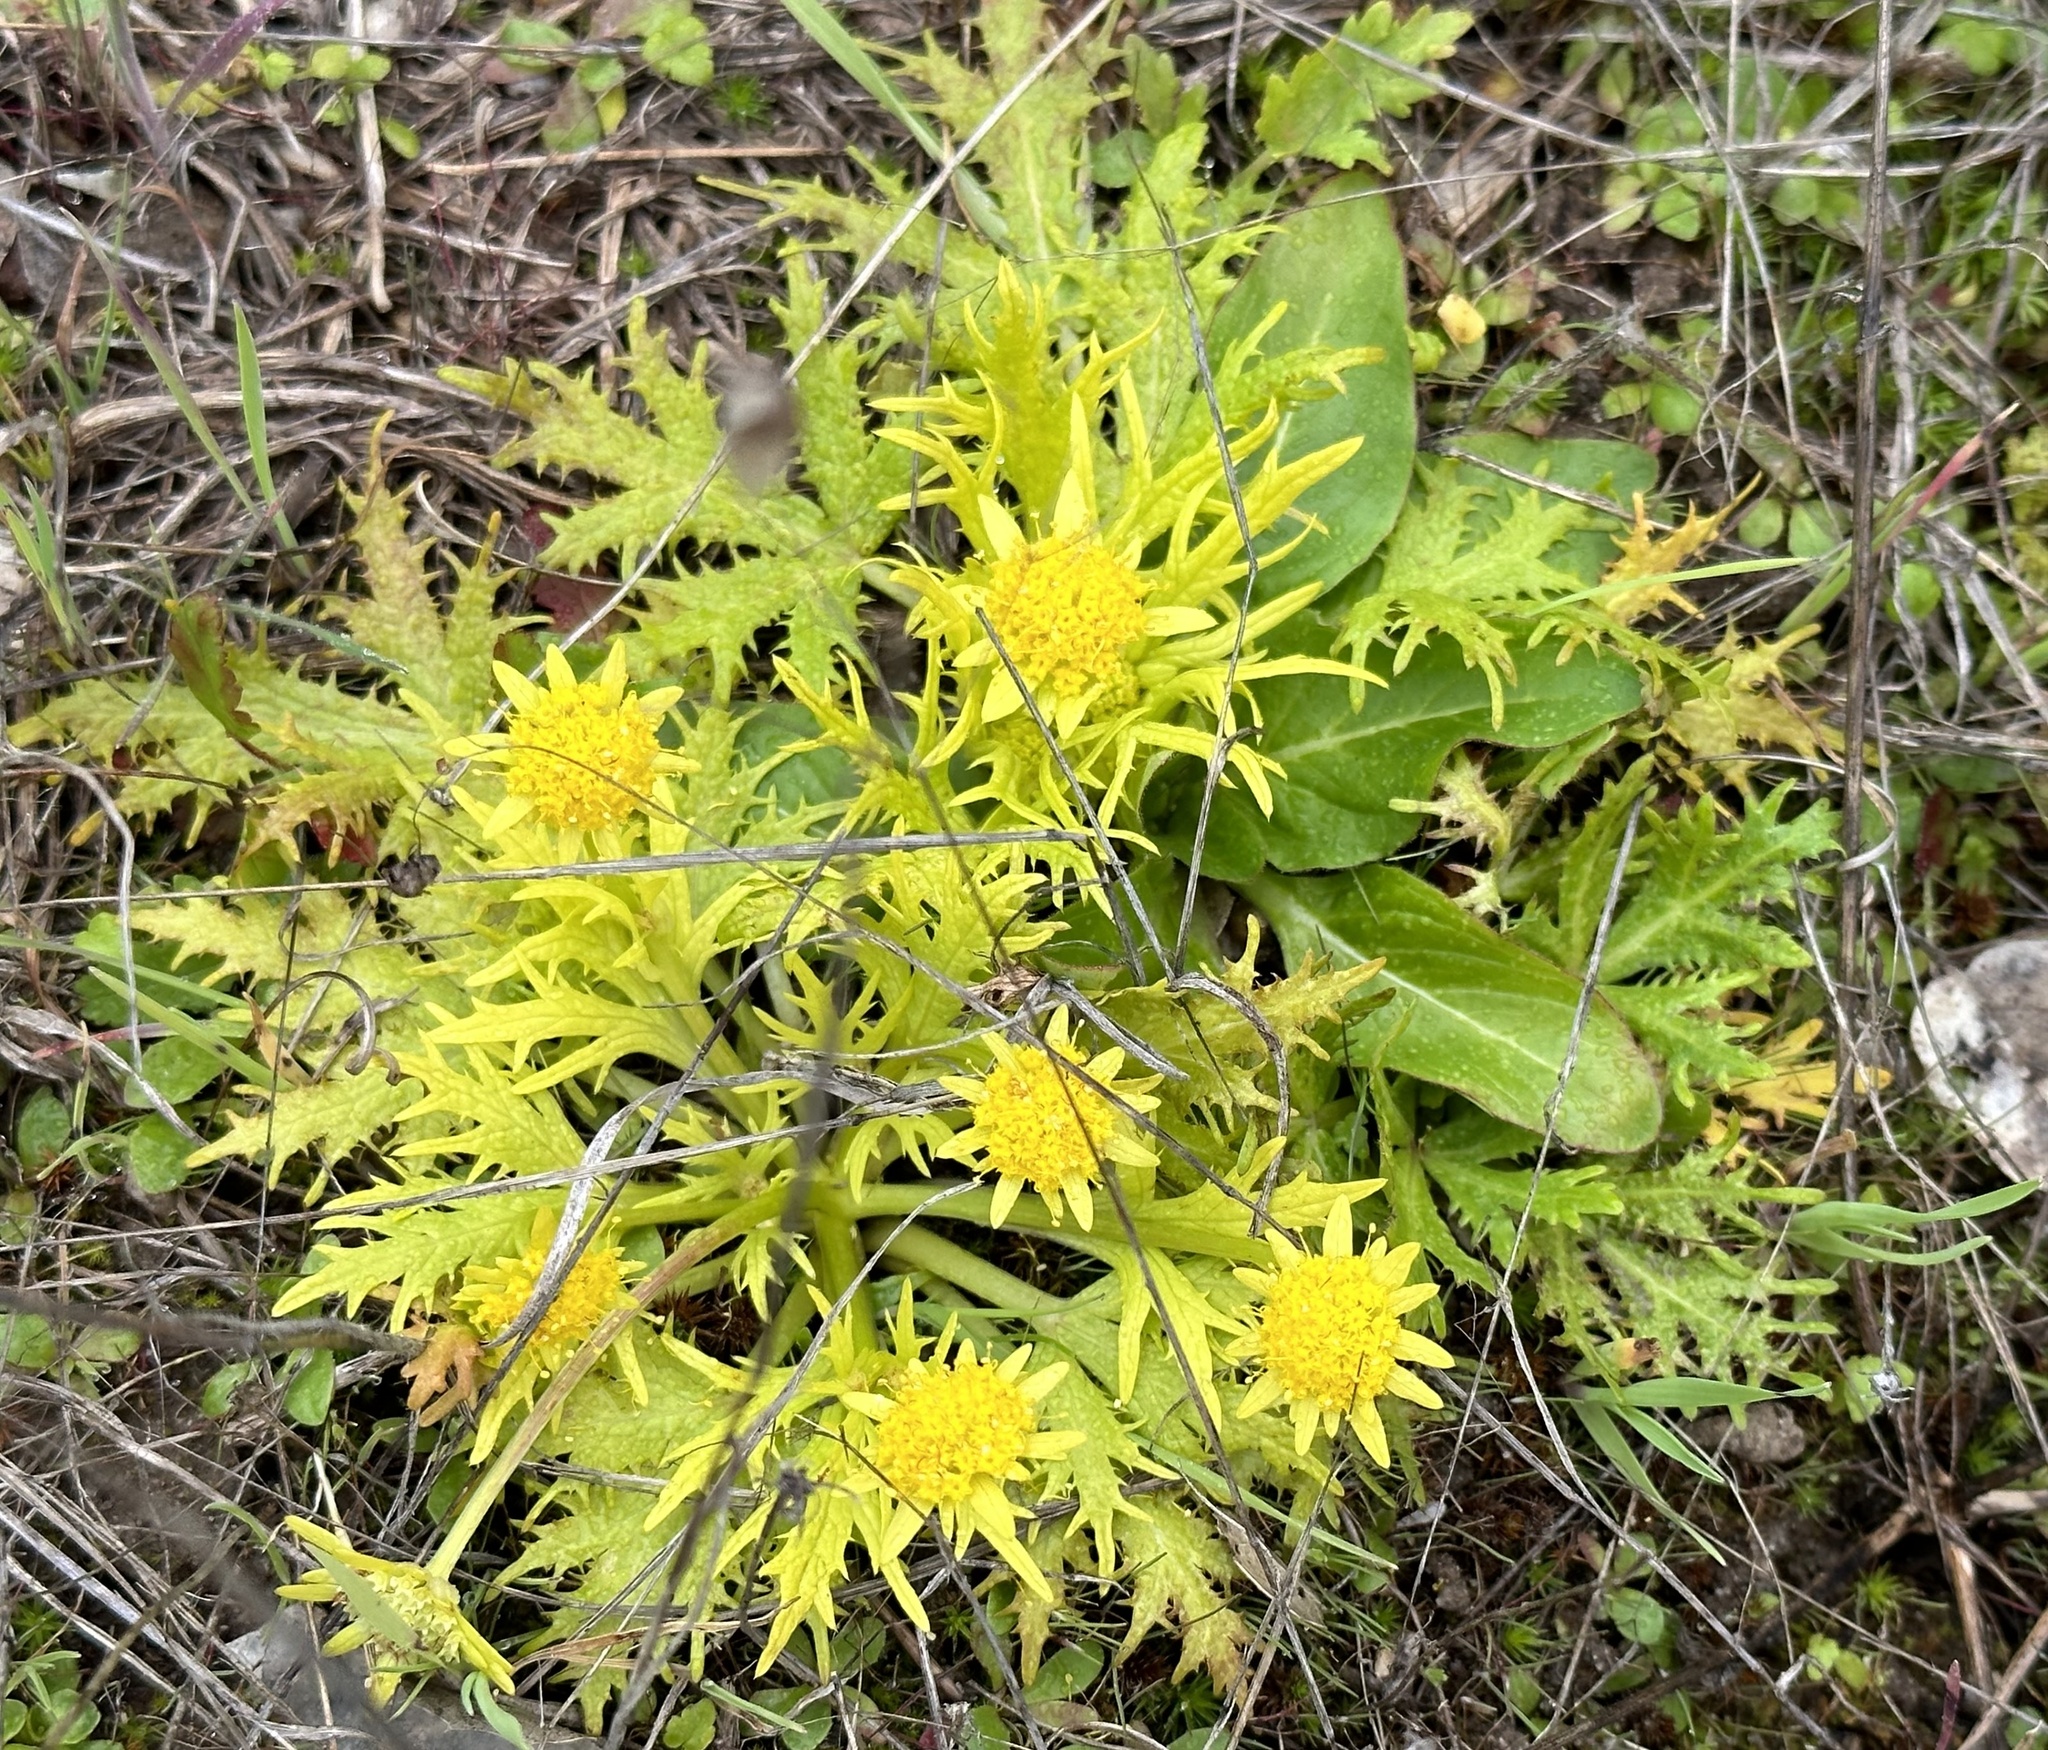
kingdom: Plantae
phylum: Tracheophyta
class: Magnoliopsida
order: Apiales
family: Apiaceae
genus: Sanicula
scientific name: Sanicula arctopoides
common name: Footsteps-of-spring
